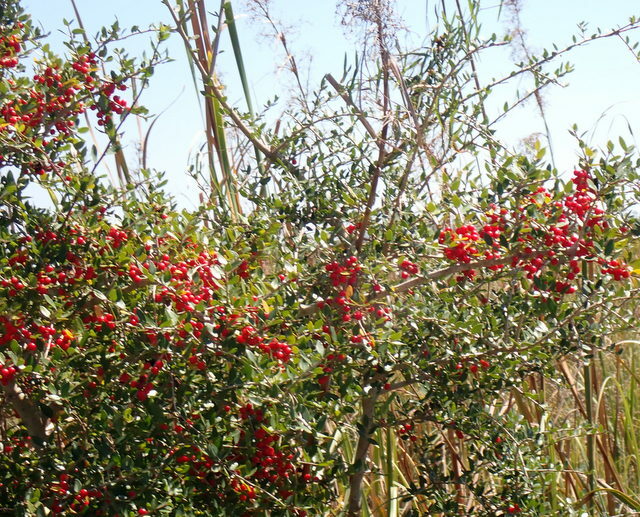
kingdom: Plantae
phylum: Tracheophyta
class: Magnoliopsida
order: Aquifoliales
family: Aquifoliaceae
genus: Ilex
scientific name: Ilex vomitoria
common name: Yaupon holly
